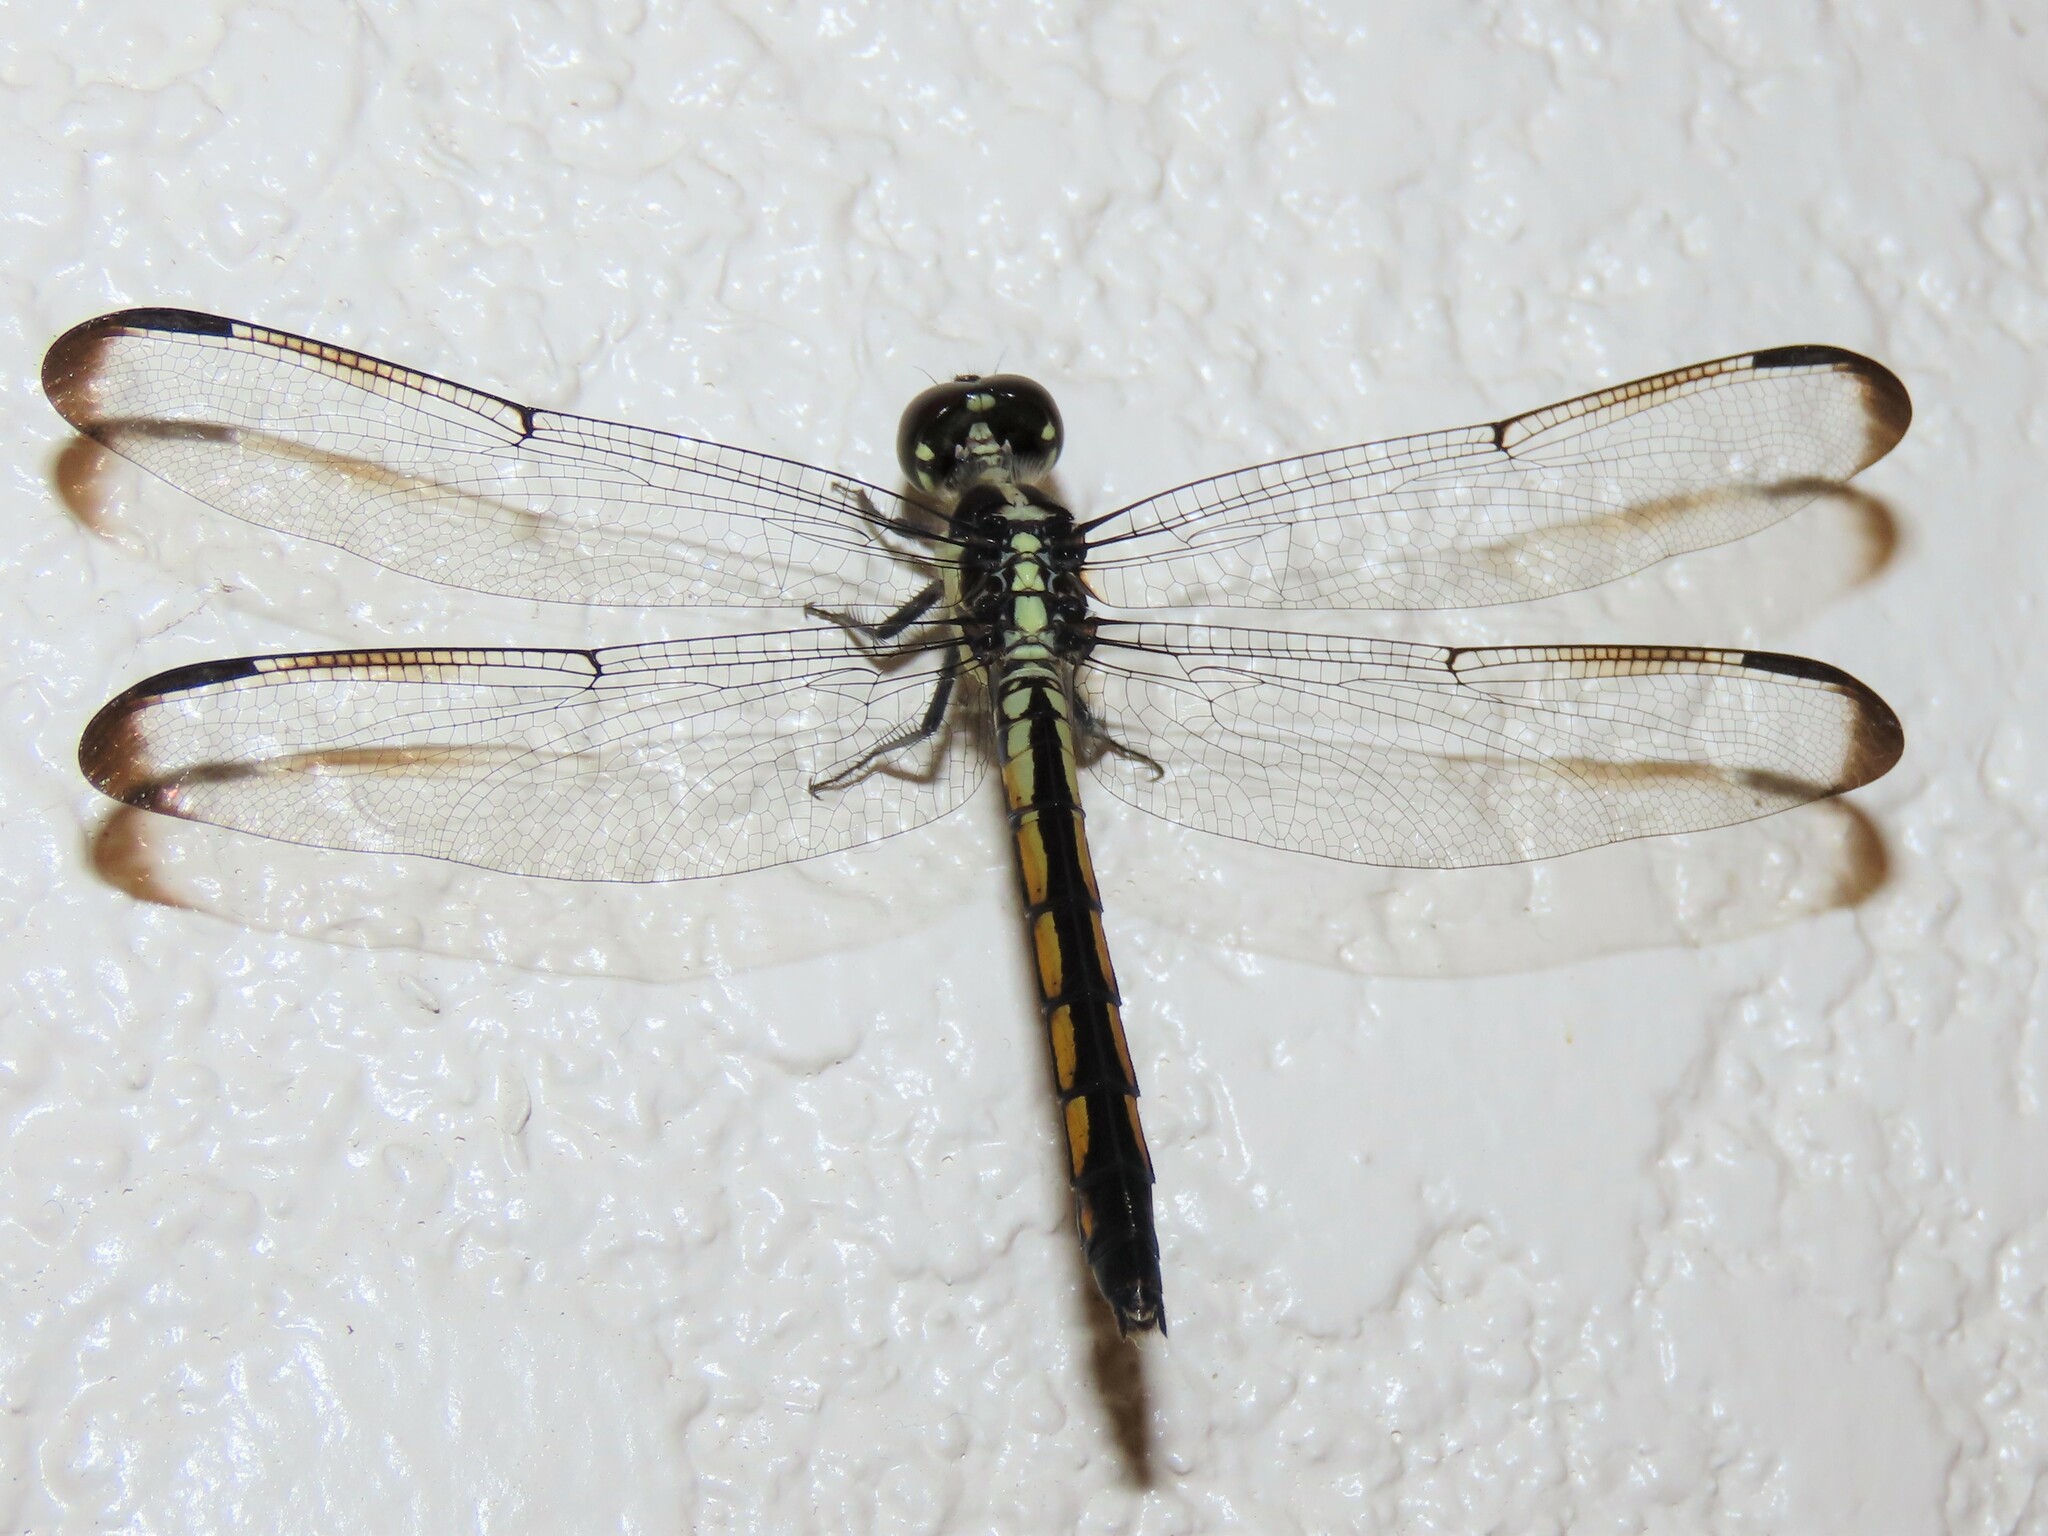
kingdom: Animalia
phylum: Arthropoda
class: Insecta
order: Odonata
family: Libellulidae
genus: Libellula
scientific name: Libellula incesta
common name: Slaty skimmer
